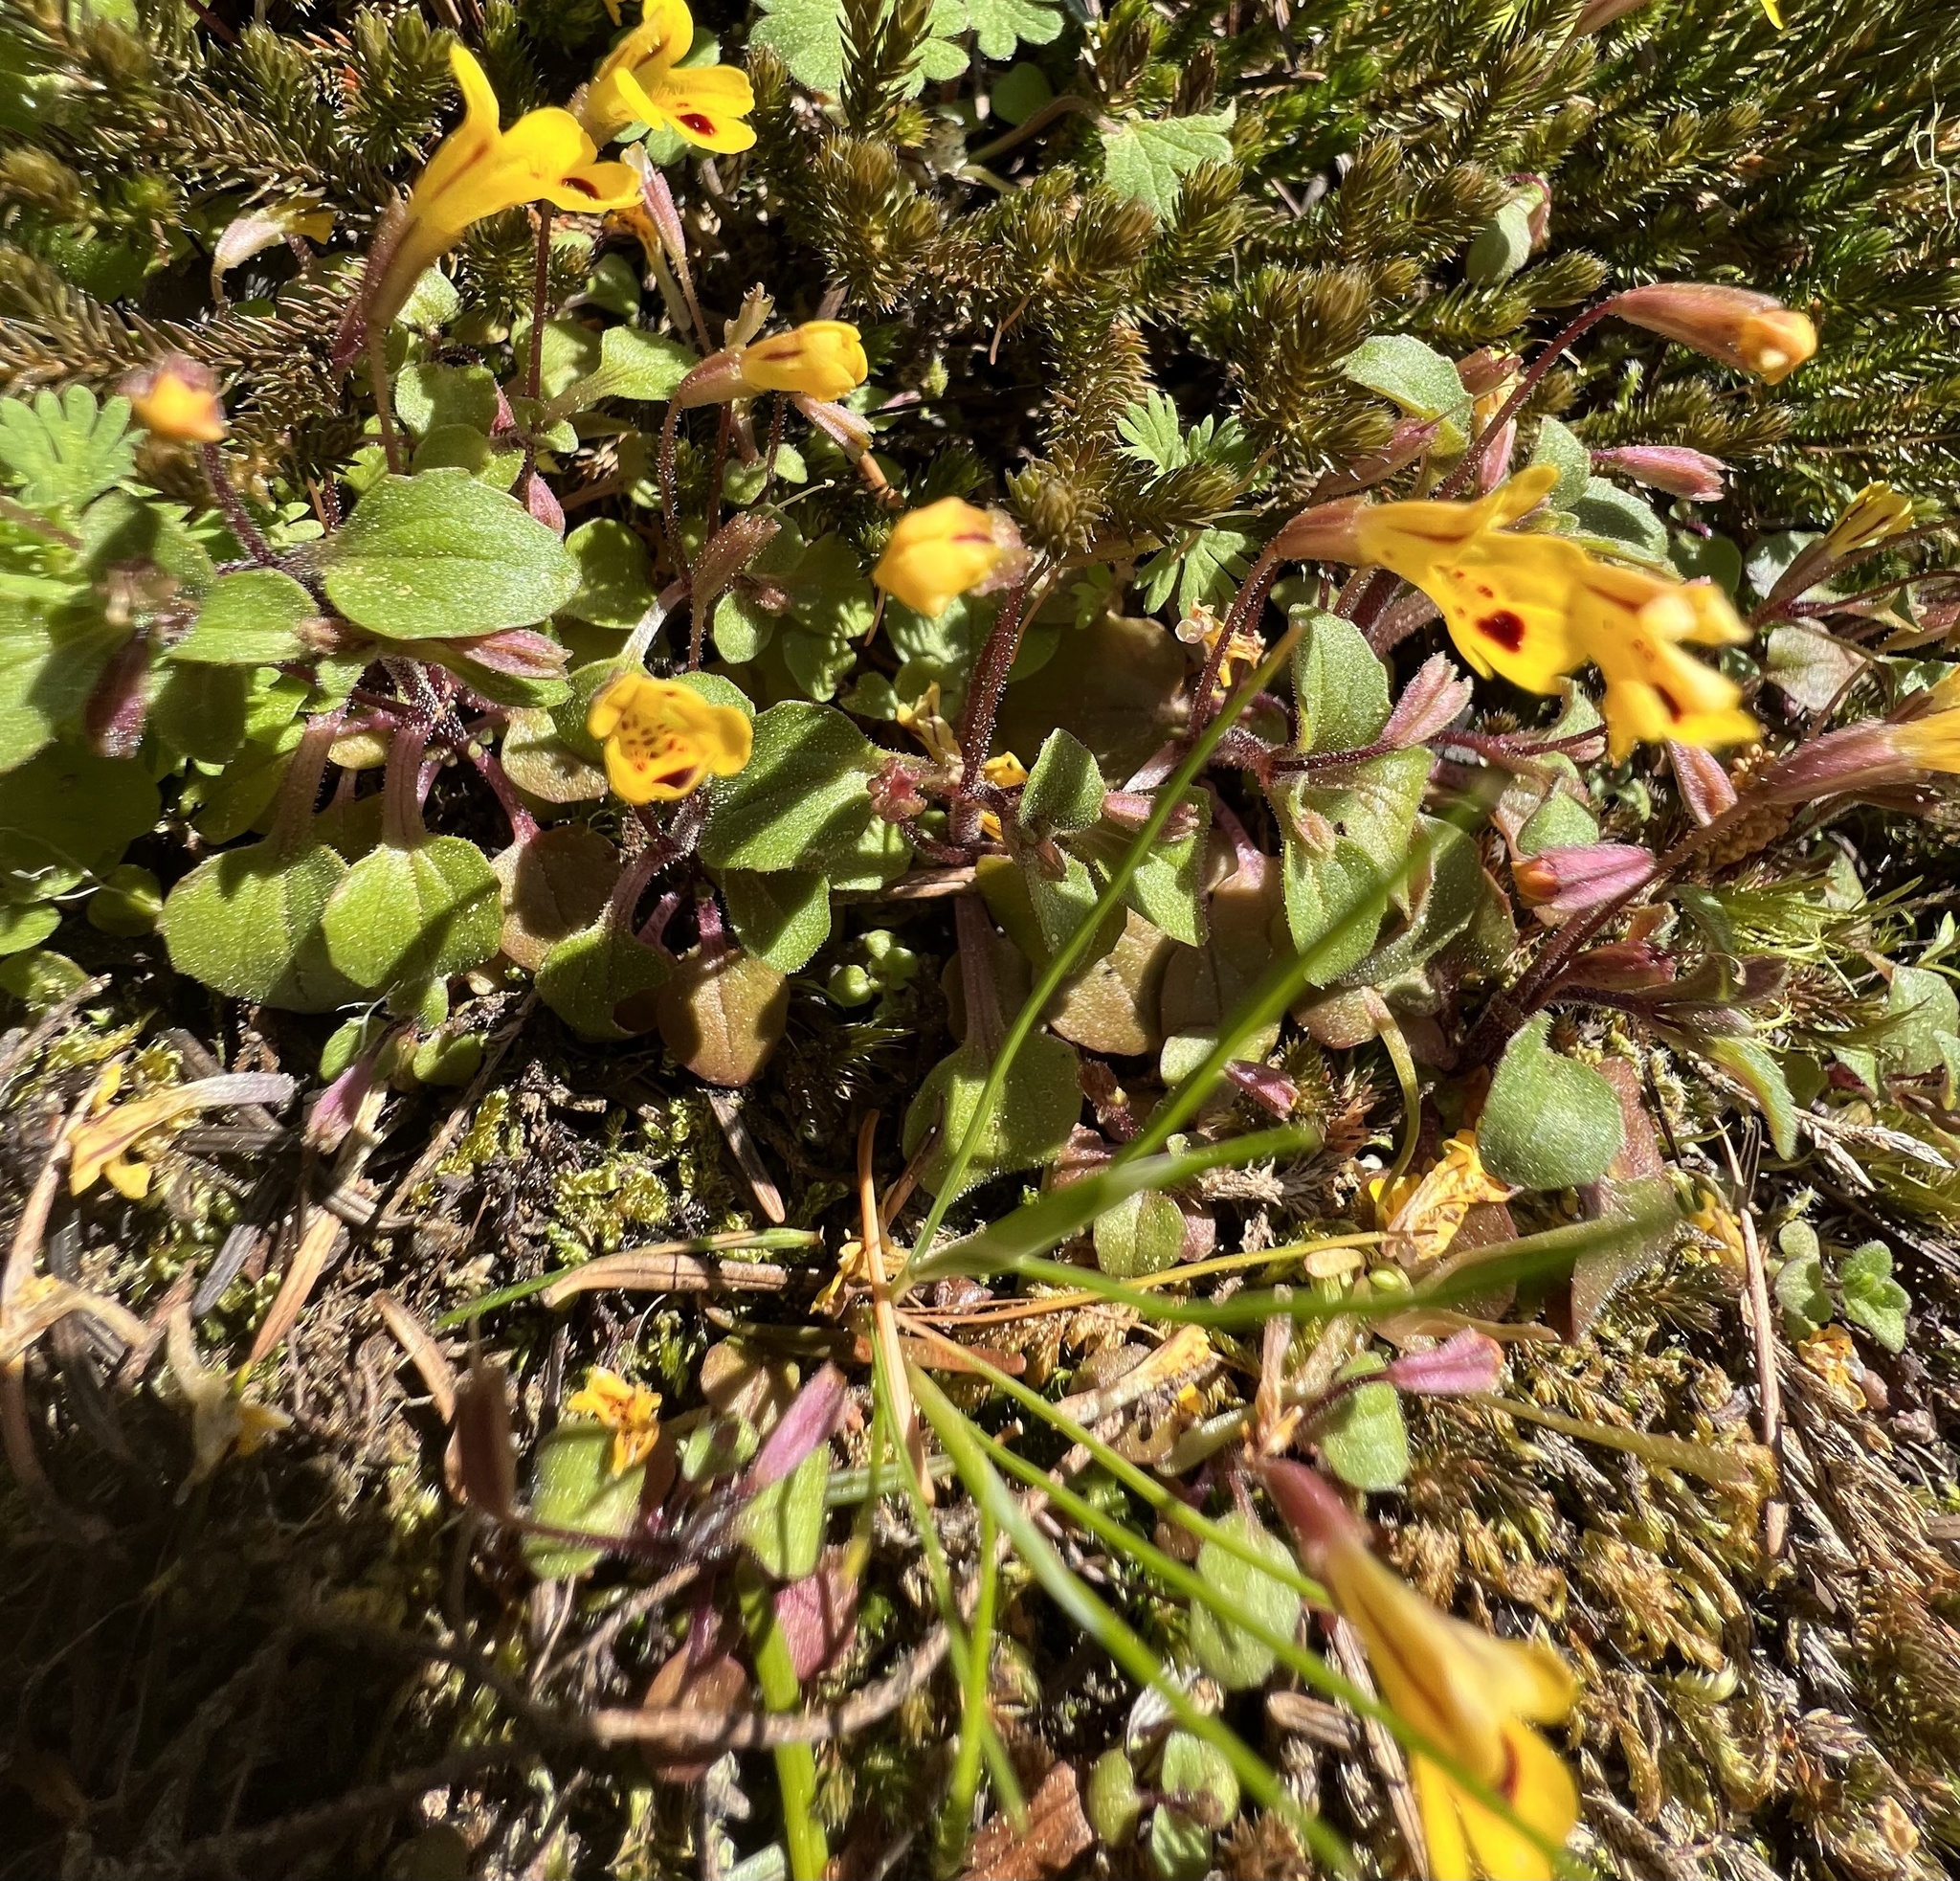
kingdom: Plantae
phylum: Tracheophyta
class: Magnoliopsida
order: Lamiales
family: Phrymaceae
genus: Erythranthe
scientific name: Erythranthe alsinoides
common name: Chickweed monkeyflower
